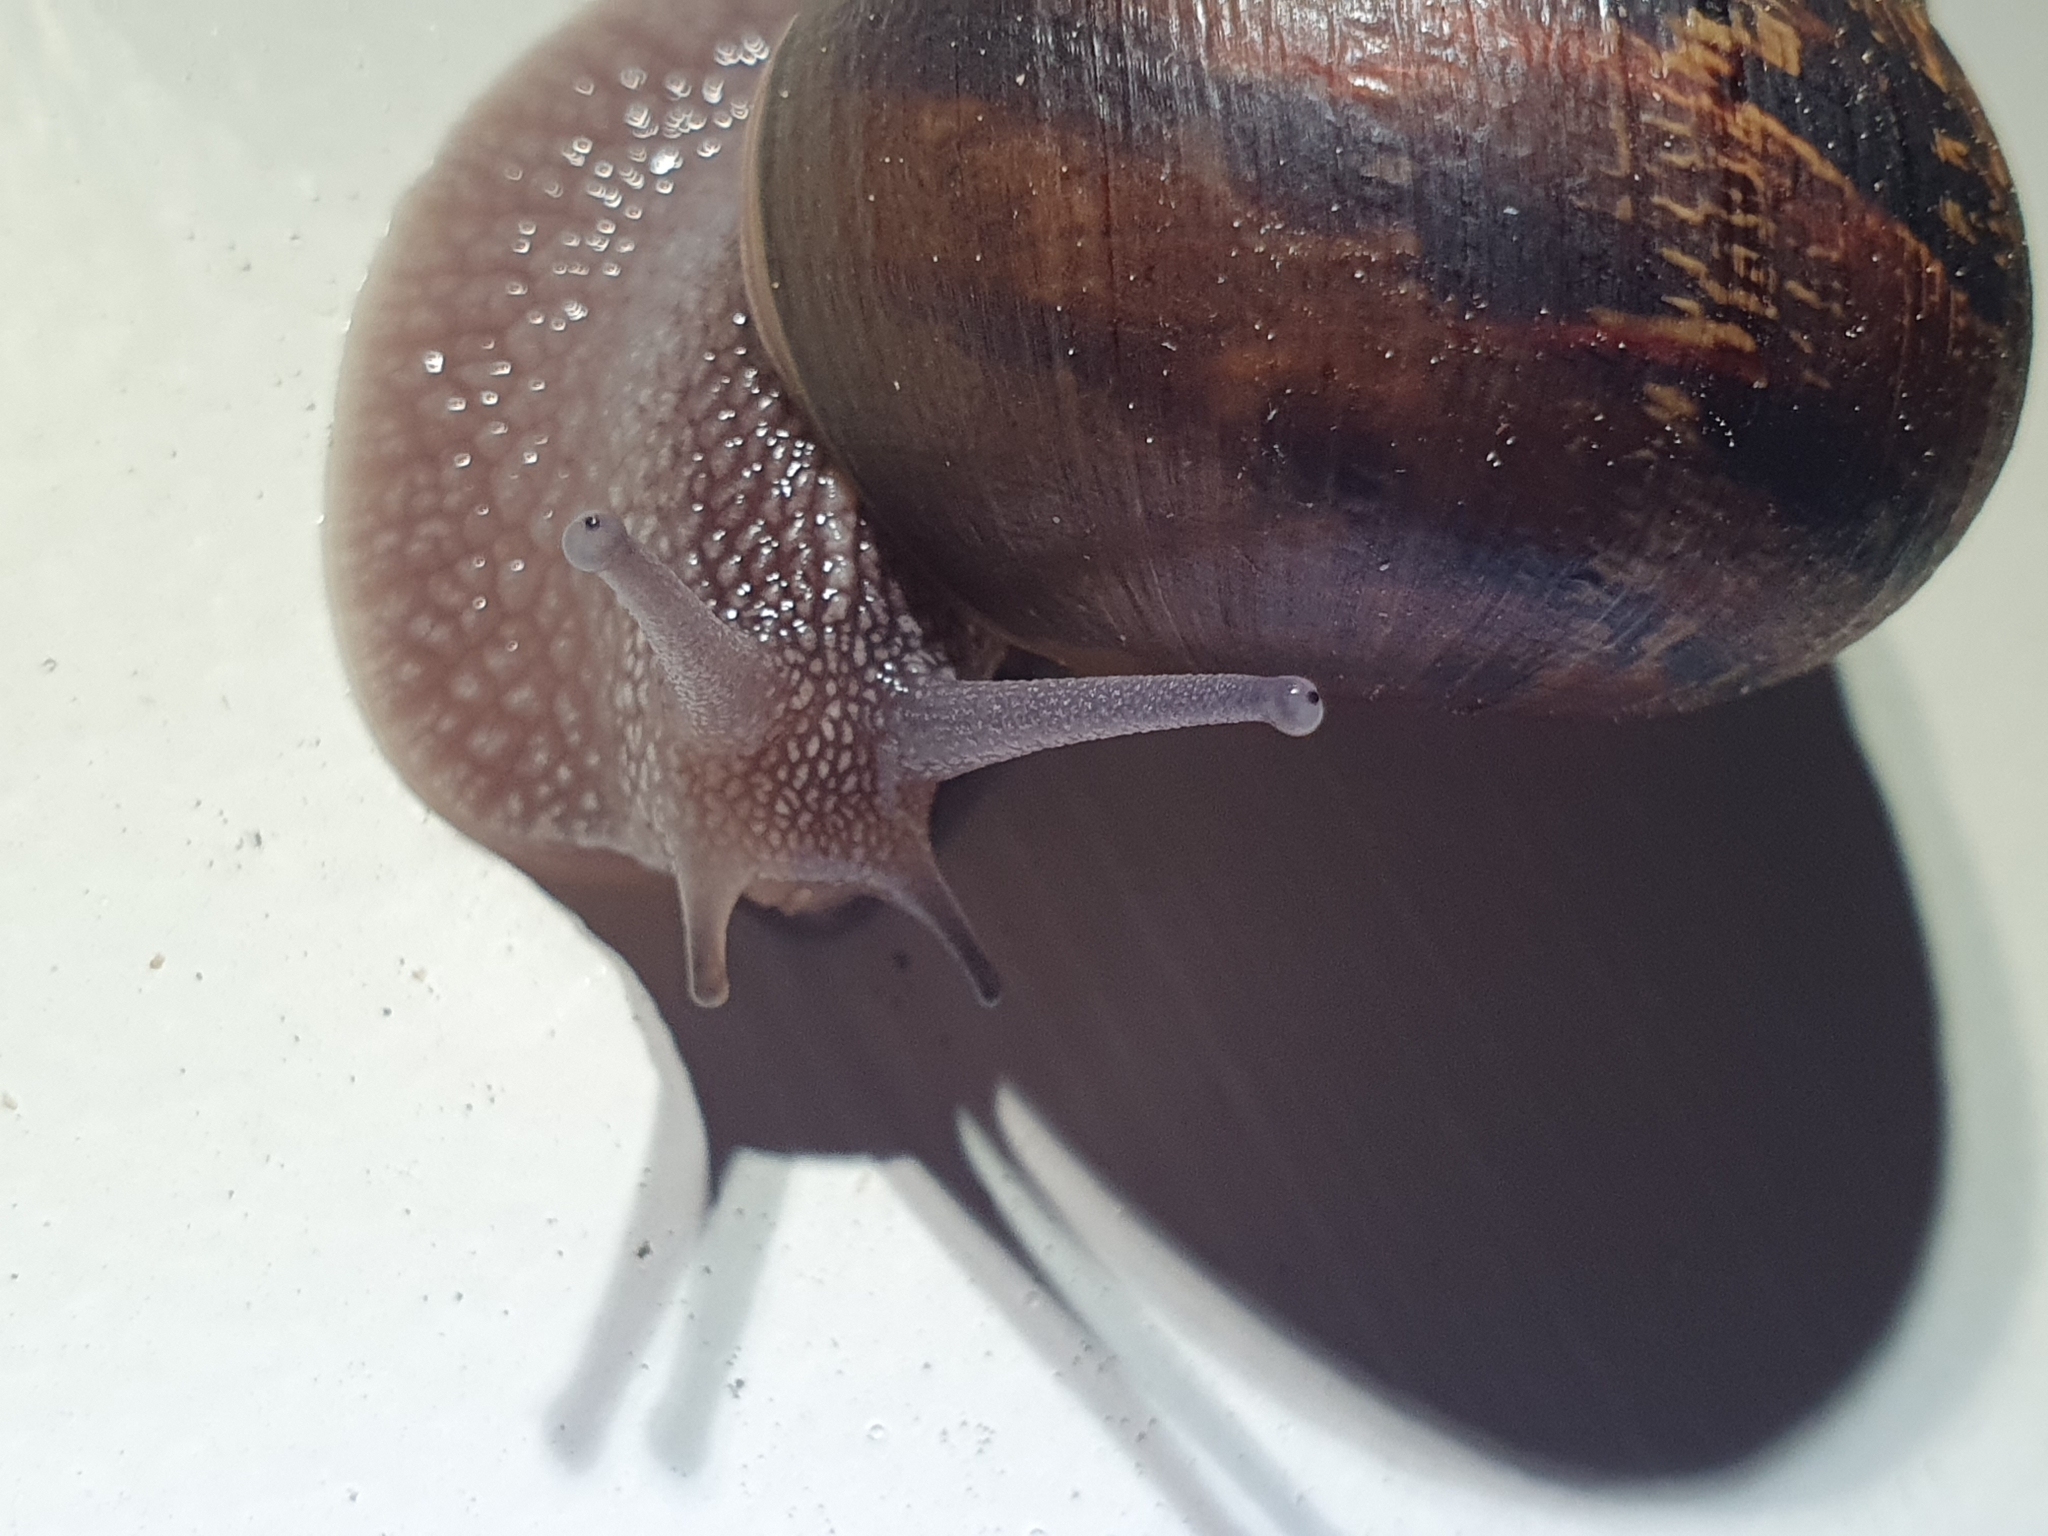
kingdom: Animalia
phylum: Mollusca
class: Gastropoda
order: Stylommatophora
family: Helicidae
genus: Cornu
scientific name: Cornu aspersum
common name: Brown garden snail
